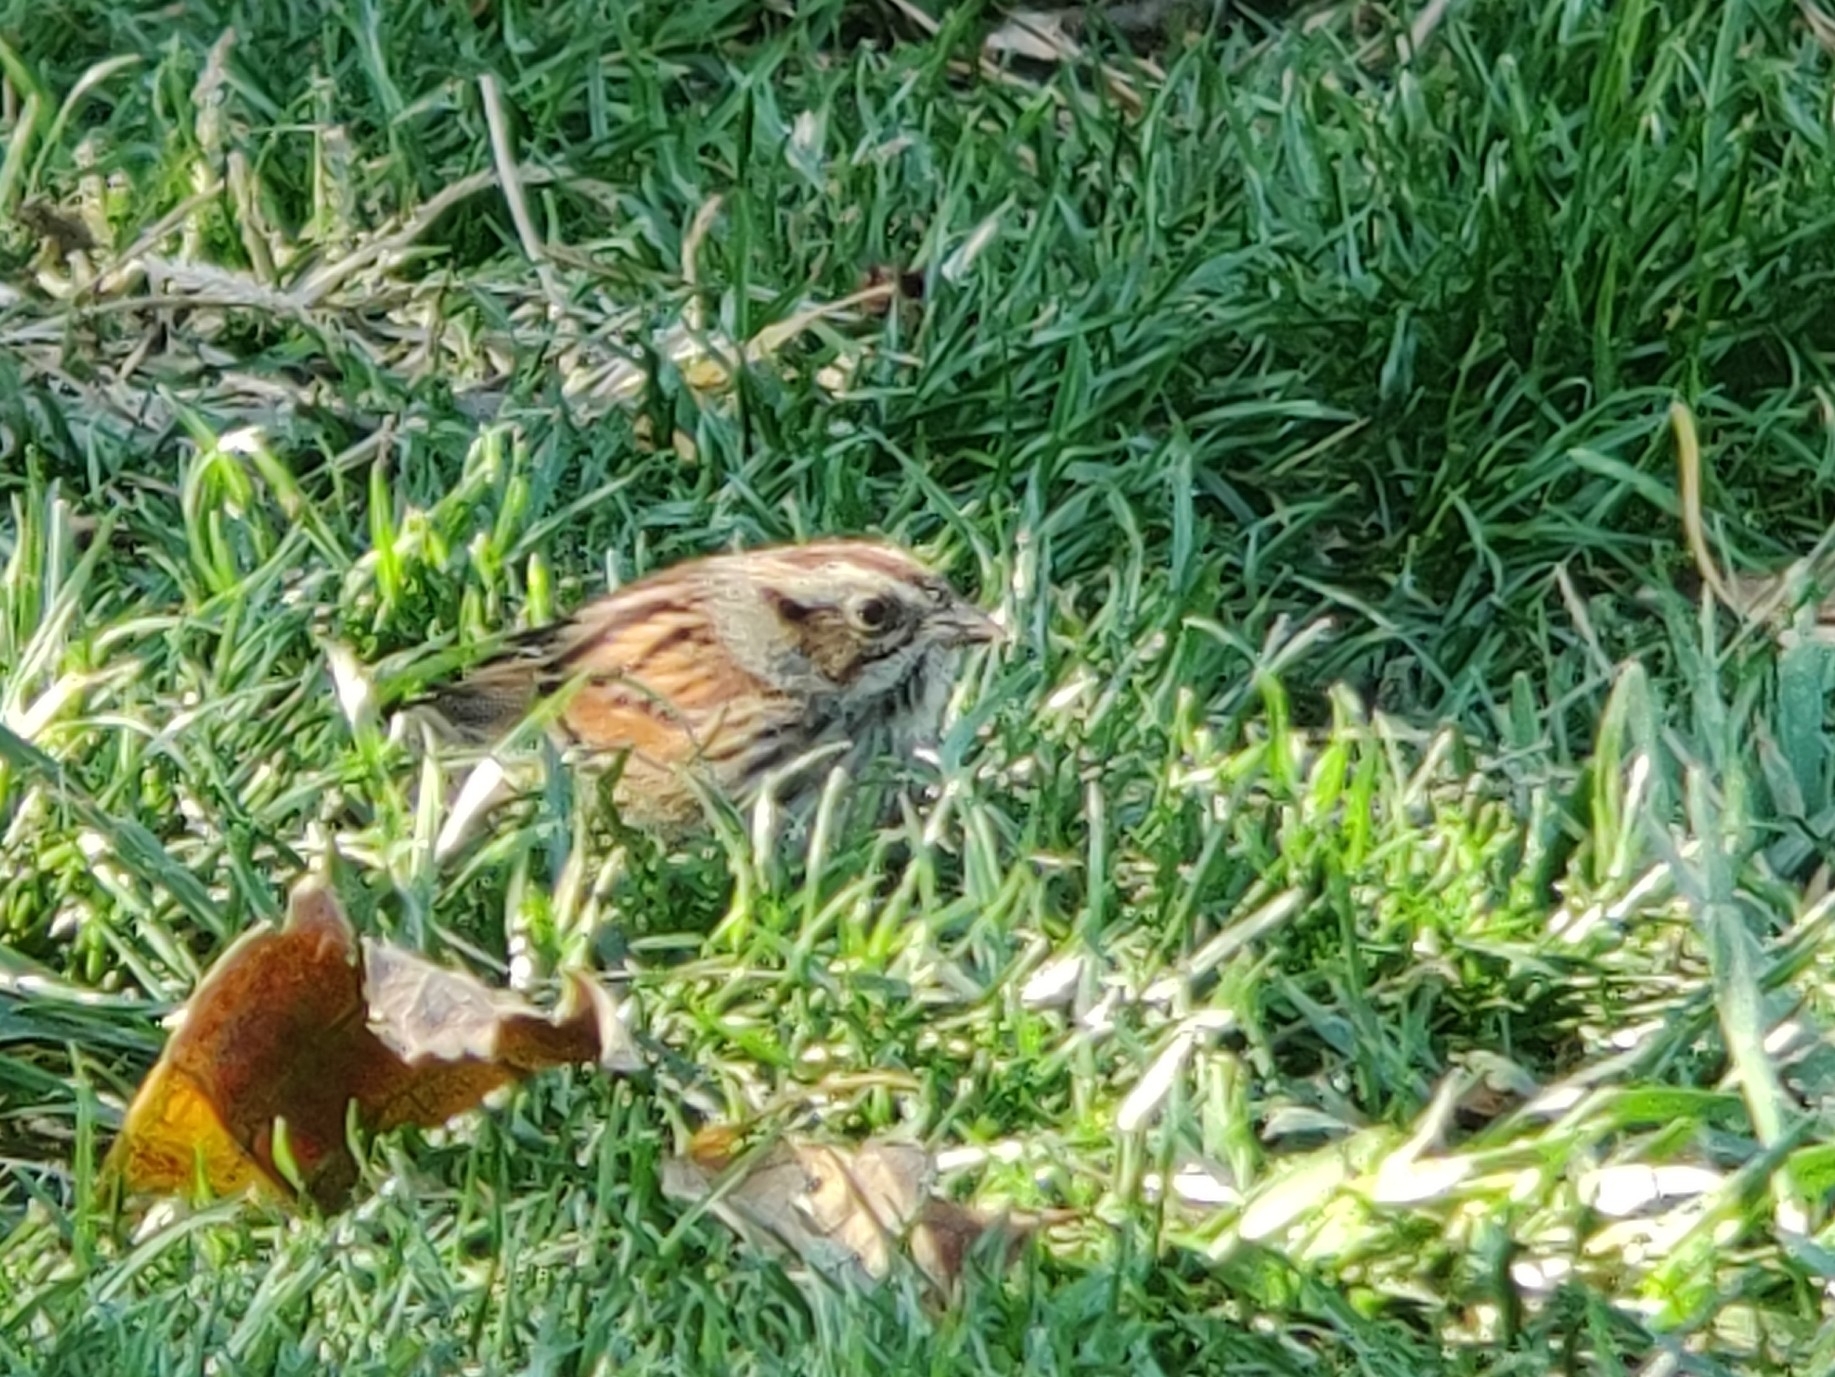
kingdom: Animalia
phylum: Chordata
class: Aves
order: Passeriformes
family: Passerellidae
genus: Melospiza
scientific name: Melospiza melodia
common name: Song sparrow
